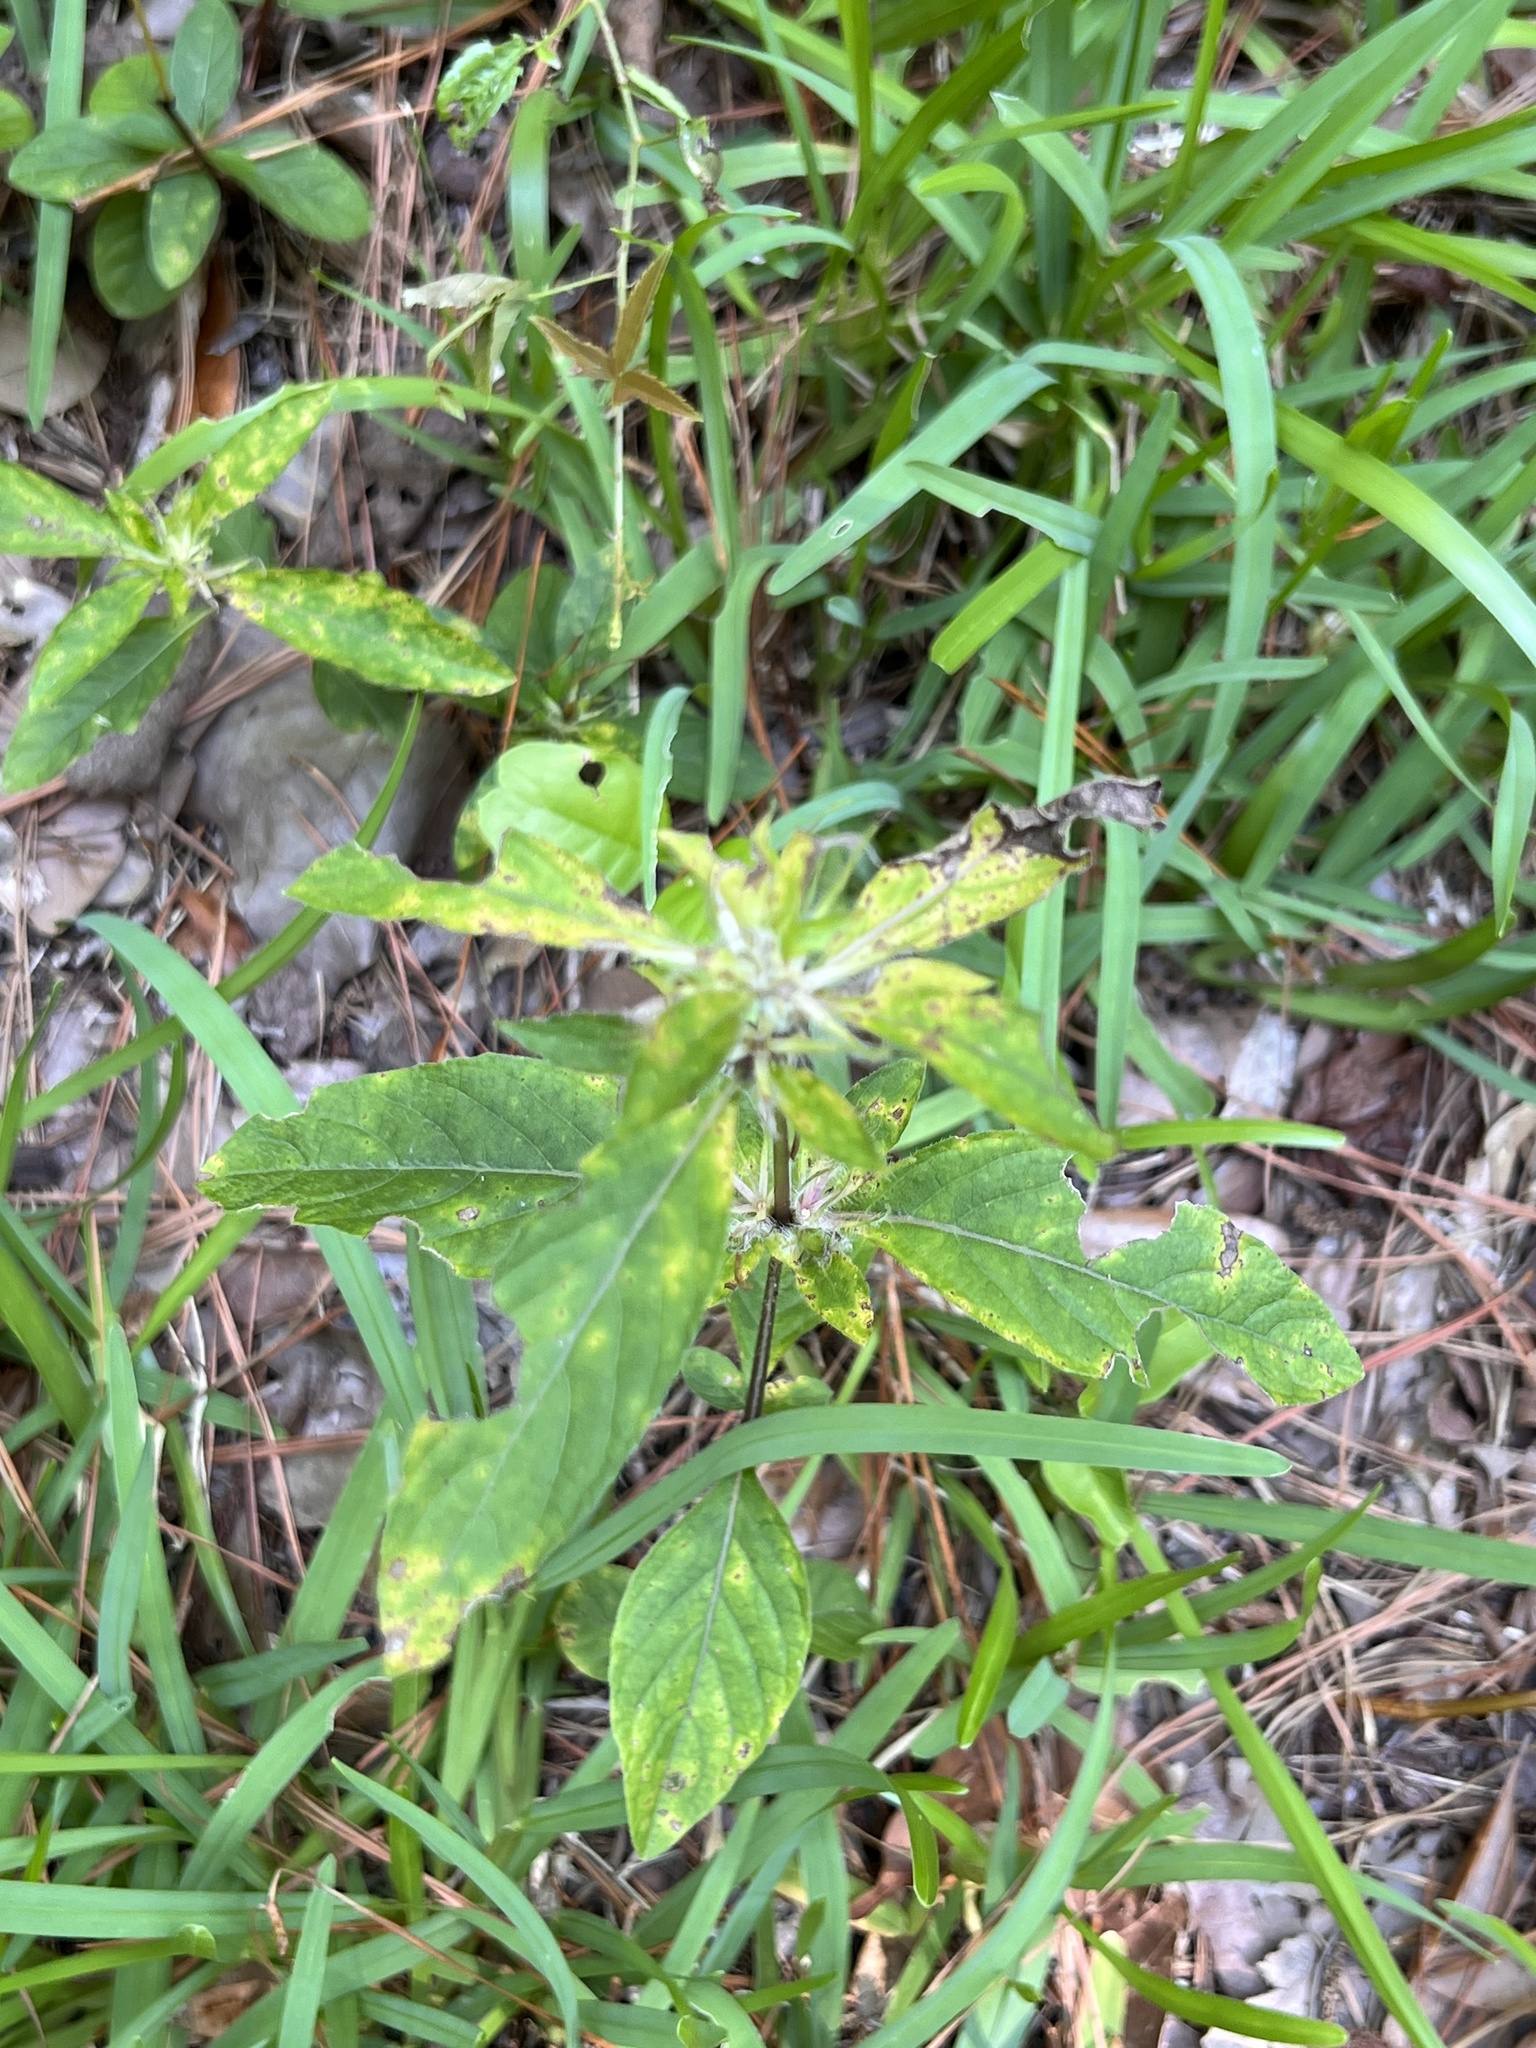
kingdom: Plantae
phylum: Tracheophyta
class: Magnoliopsida
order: Lamiales
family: Acanthaceae
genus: Ruellia
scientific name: Ruellia caroliniensis
